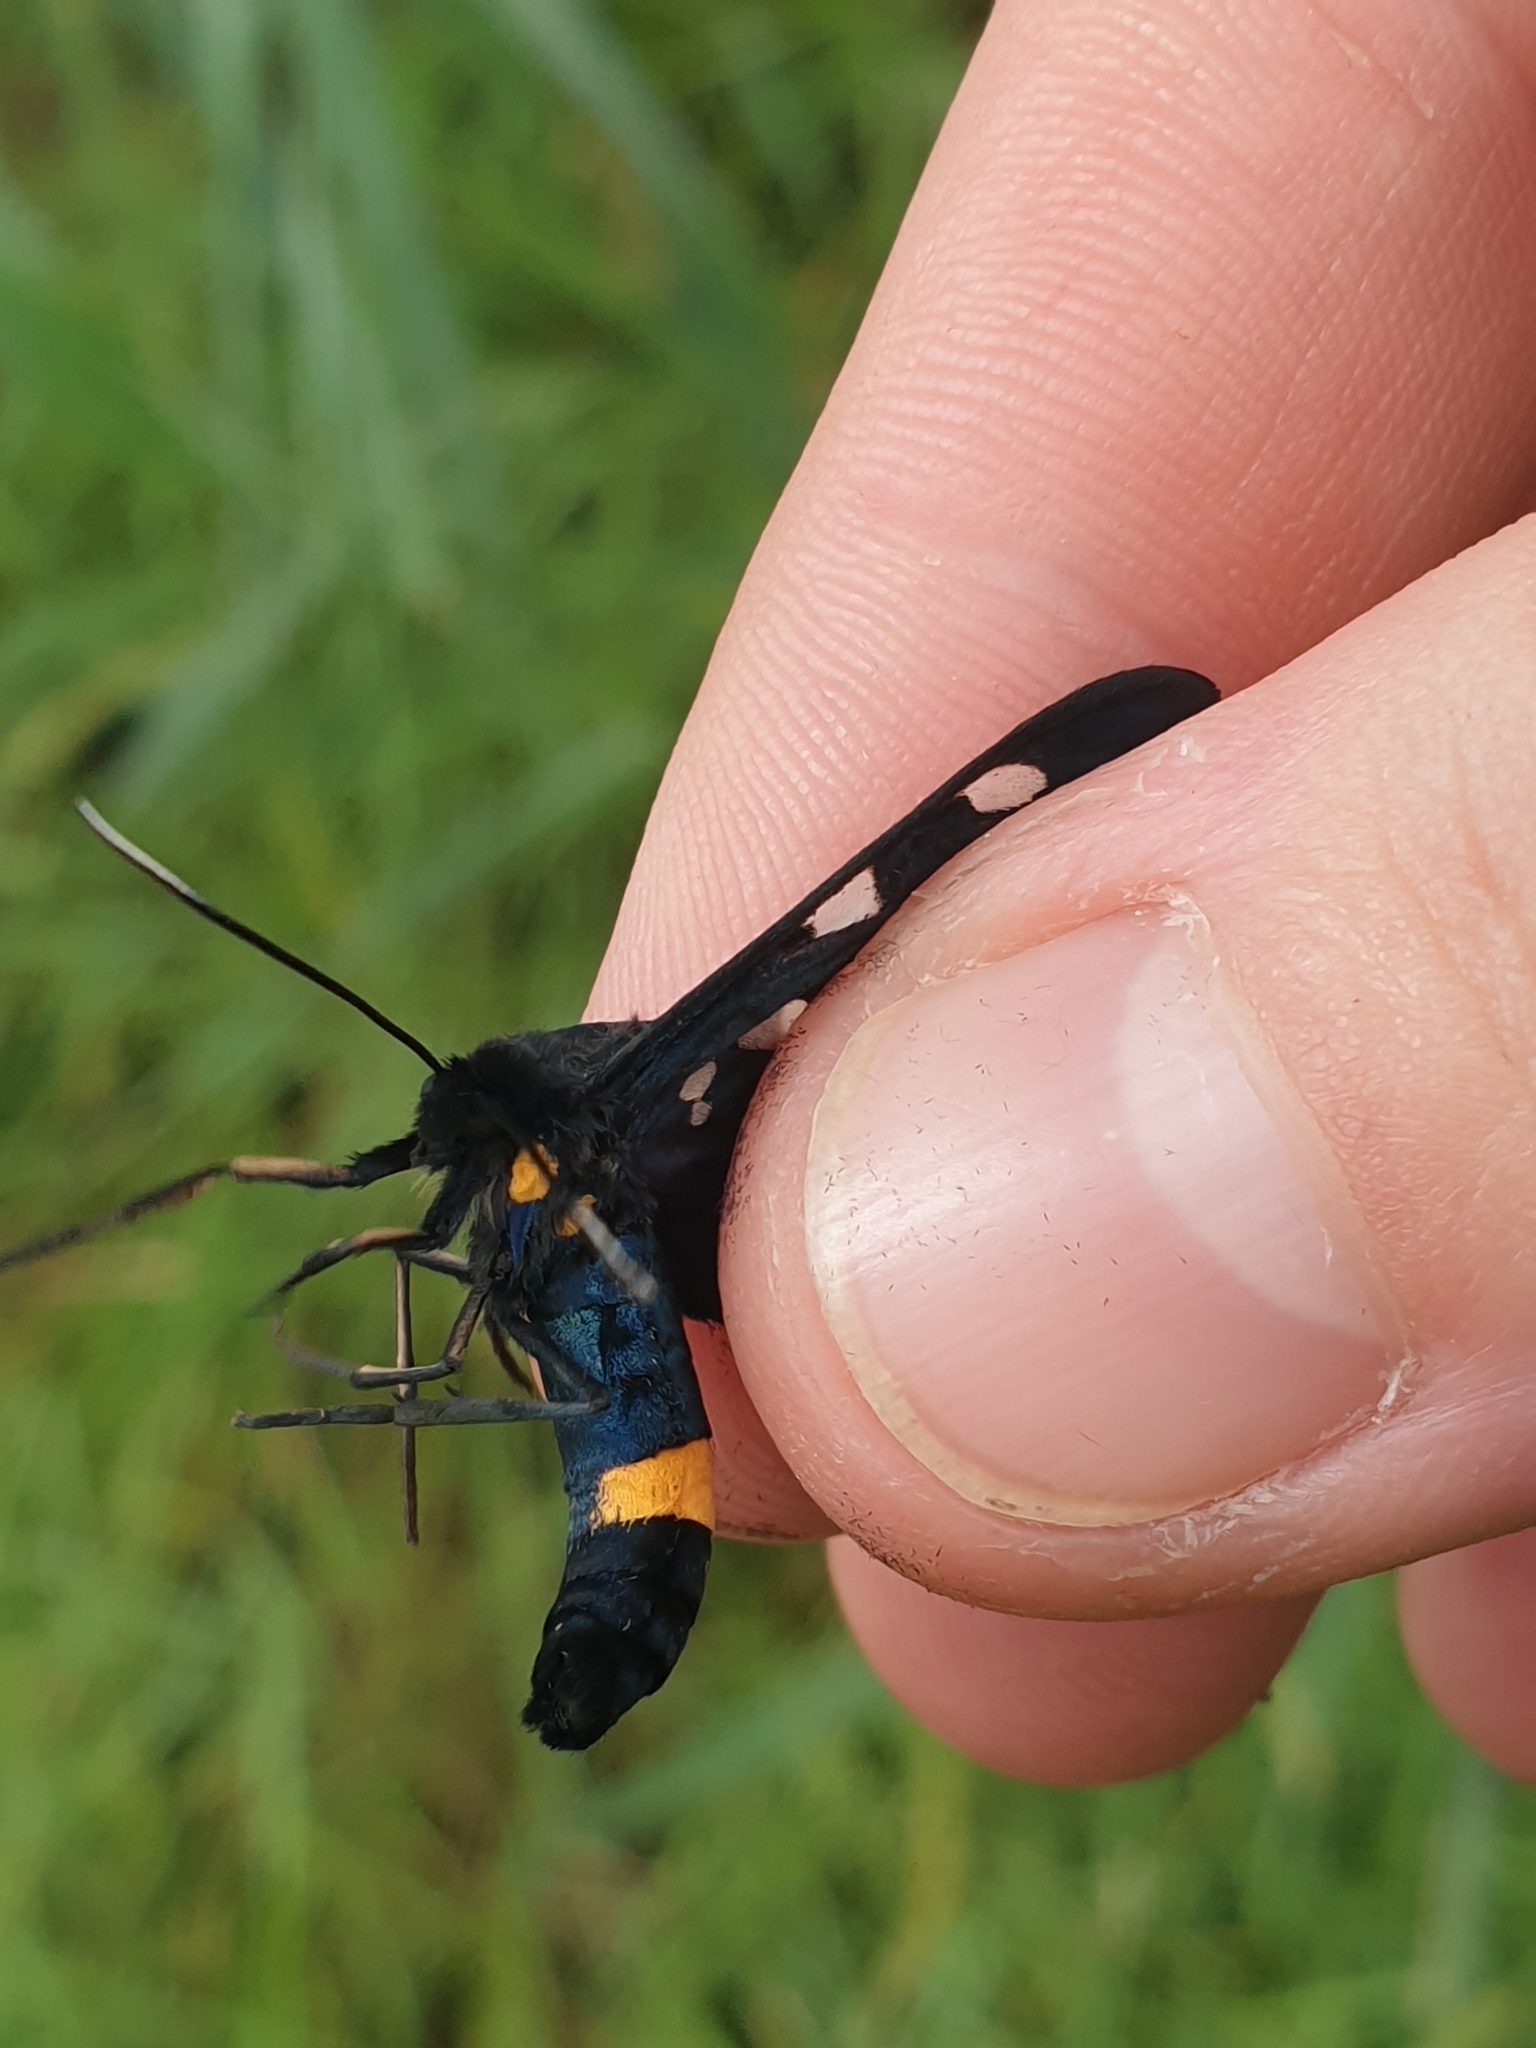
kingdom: Animalia
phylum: Arthropoda
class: Insecta
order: Lepidoptera
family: Erebidae
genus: Amata
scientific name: Amata phegea
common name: Nine-spotted
